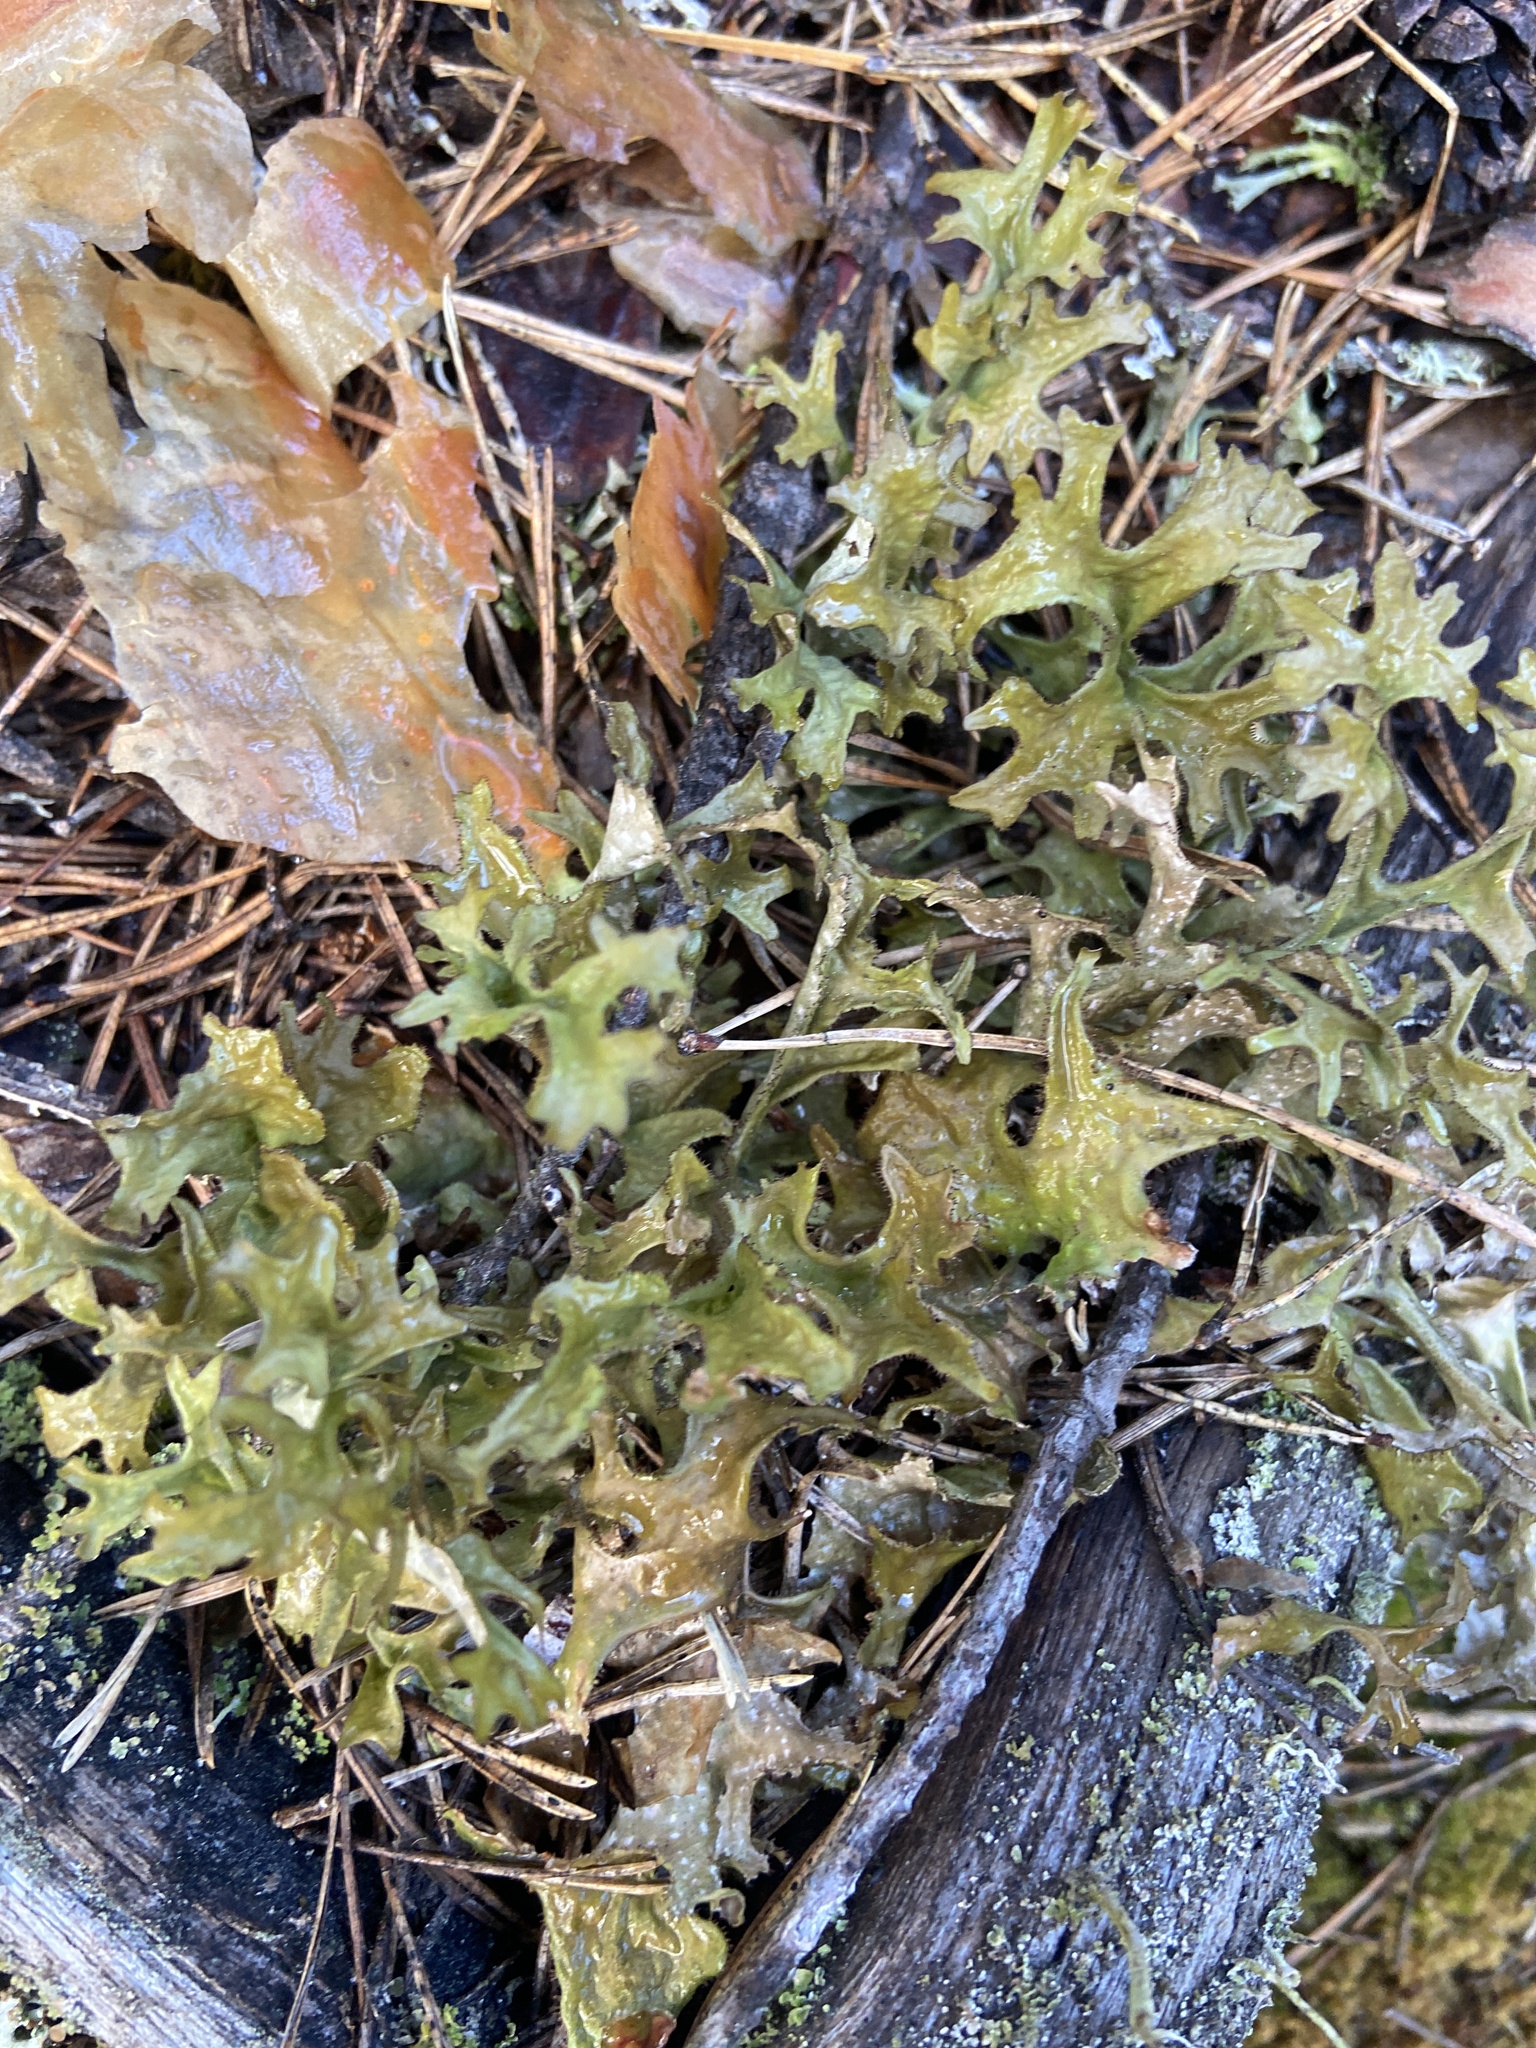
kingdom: Fungi
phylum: Ascomycota
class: Lecanoromycetes
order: Lecanorales
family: Parmeliaceae
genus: Cetraria
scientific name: Cetraria islandica
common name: Iceland lichen
